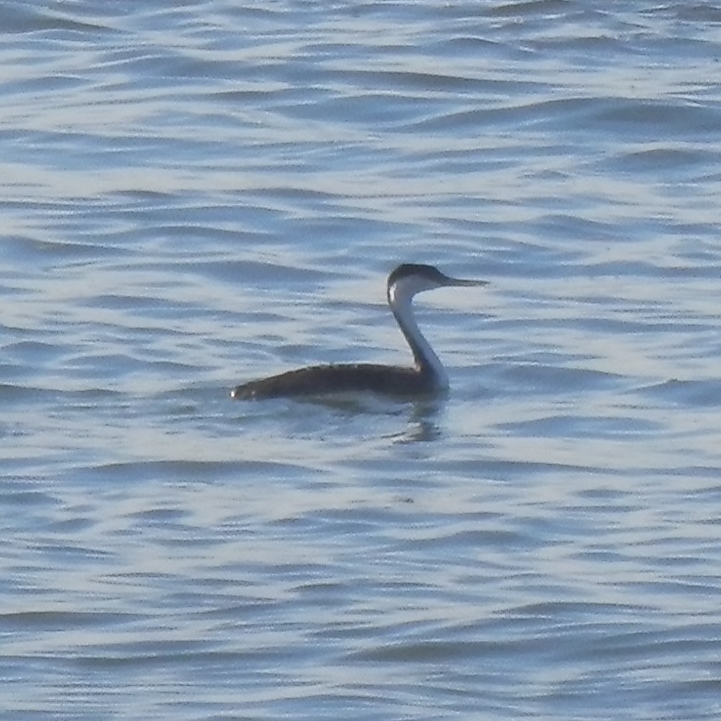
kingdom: Animalia
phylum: Chordata
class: Aves
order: Podicipediformes
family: Podicipedidae
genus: Aechmophorus
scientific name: Aechmophorus occidentalis
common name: Western grebe
